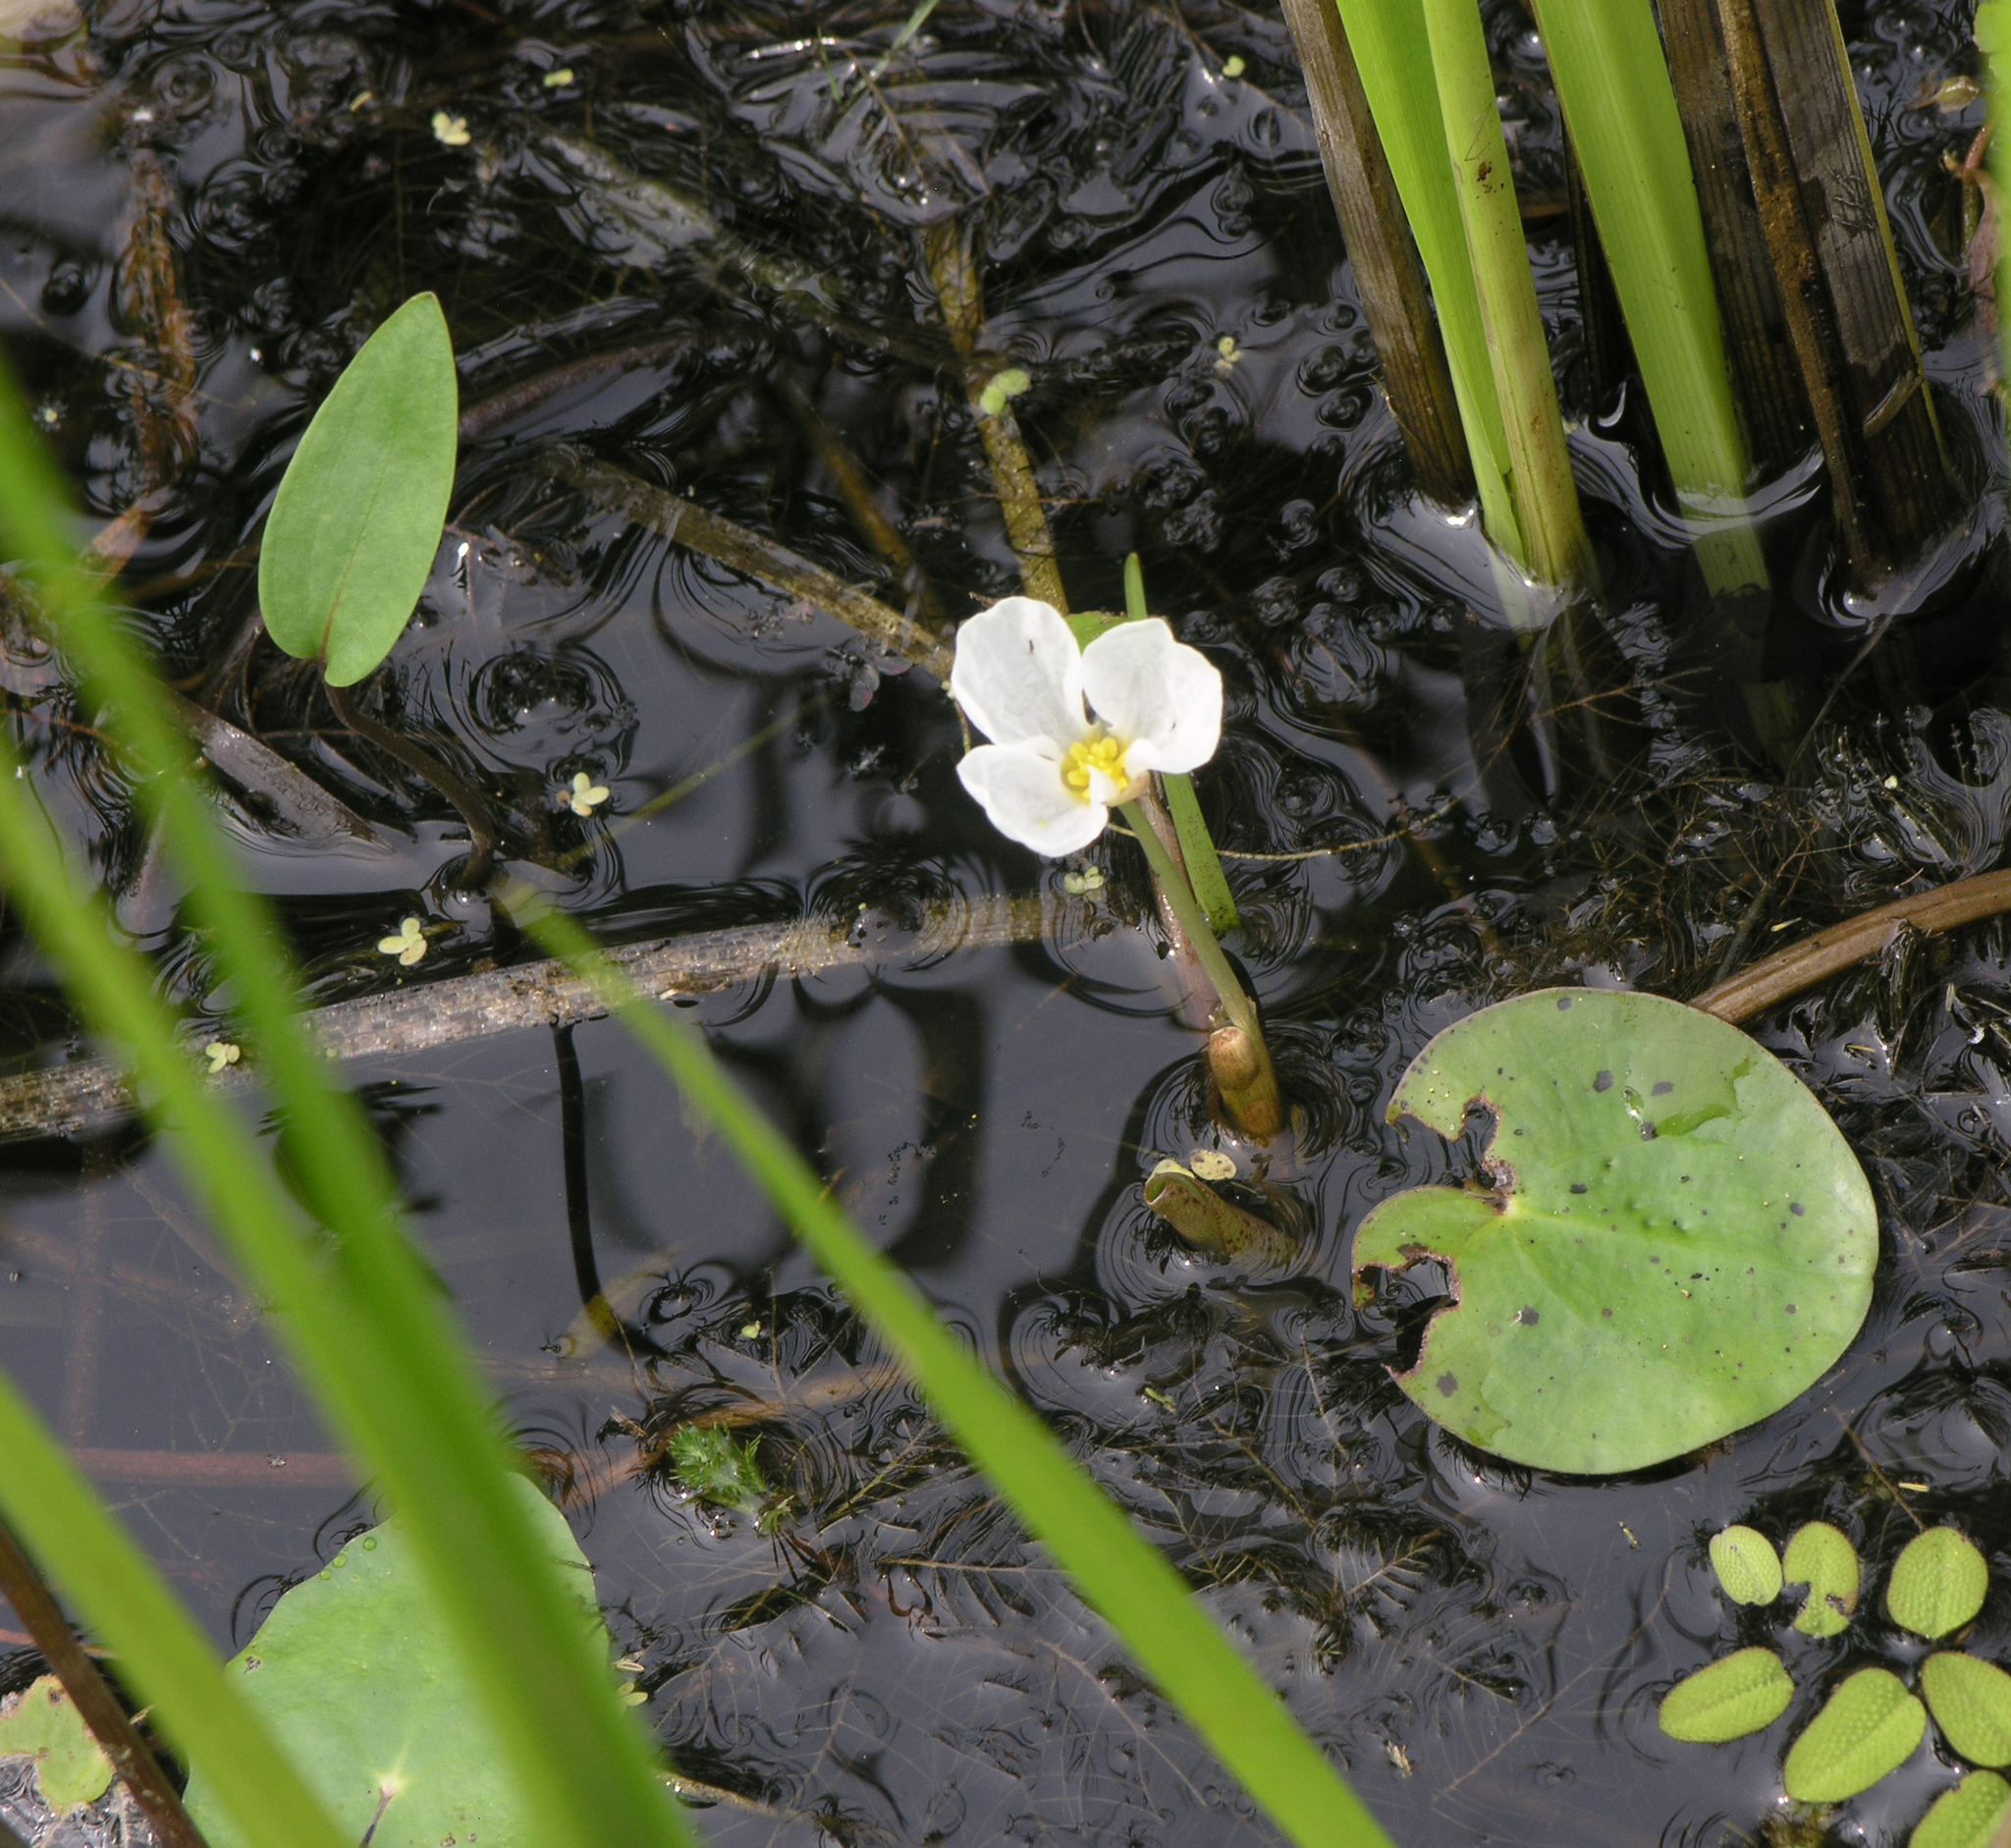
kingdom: Plantae
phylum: Tracheophyta
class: Liliopsida
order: Alismatales
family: Hydrocharitaceae
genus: Hydrocharis
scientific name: Hydrocharis dubia
